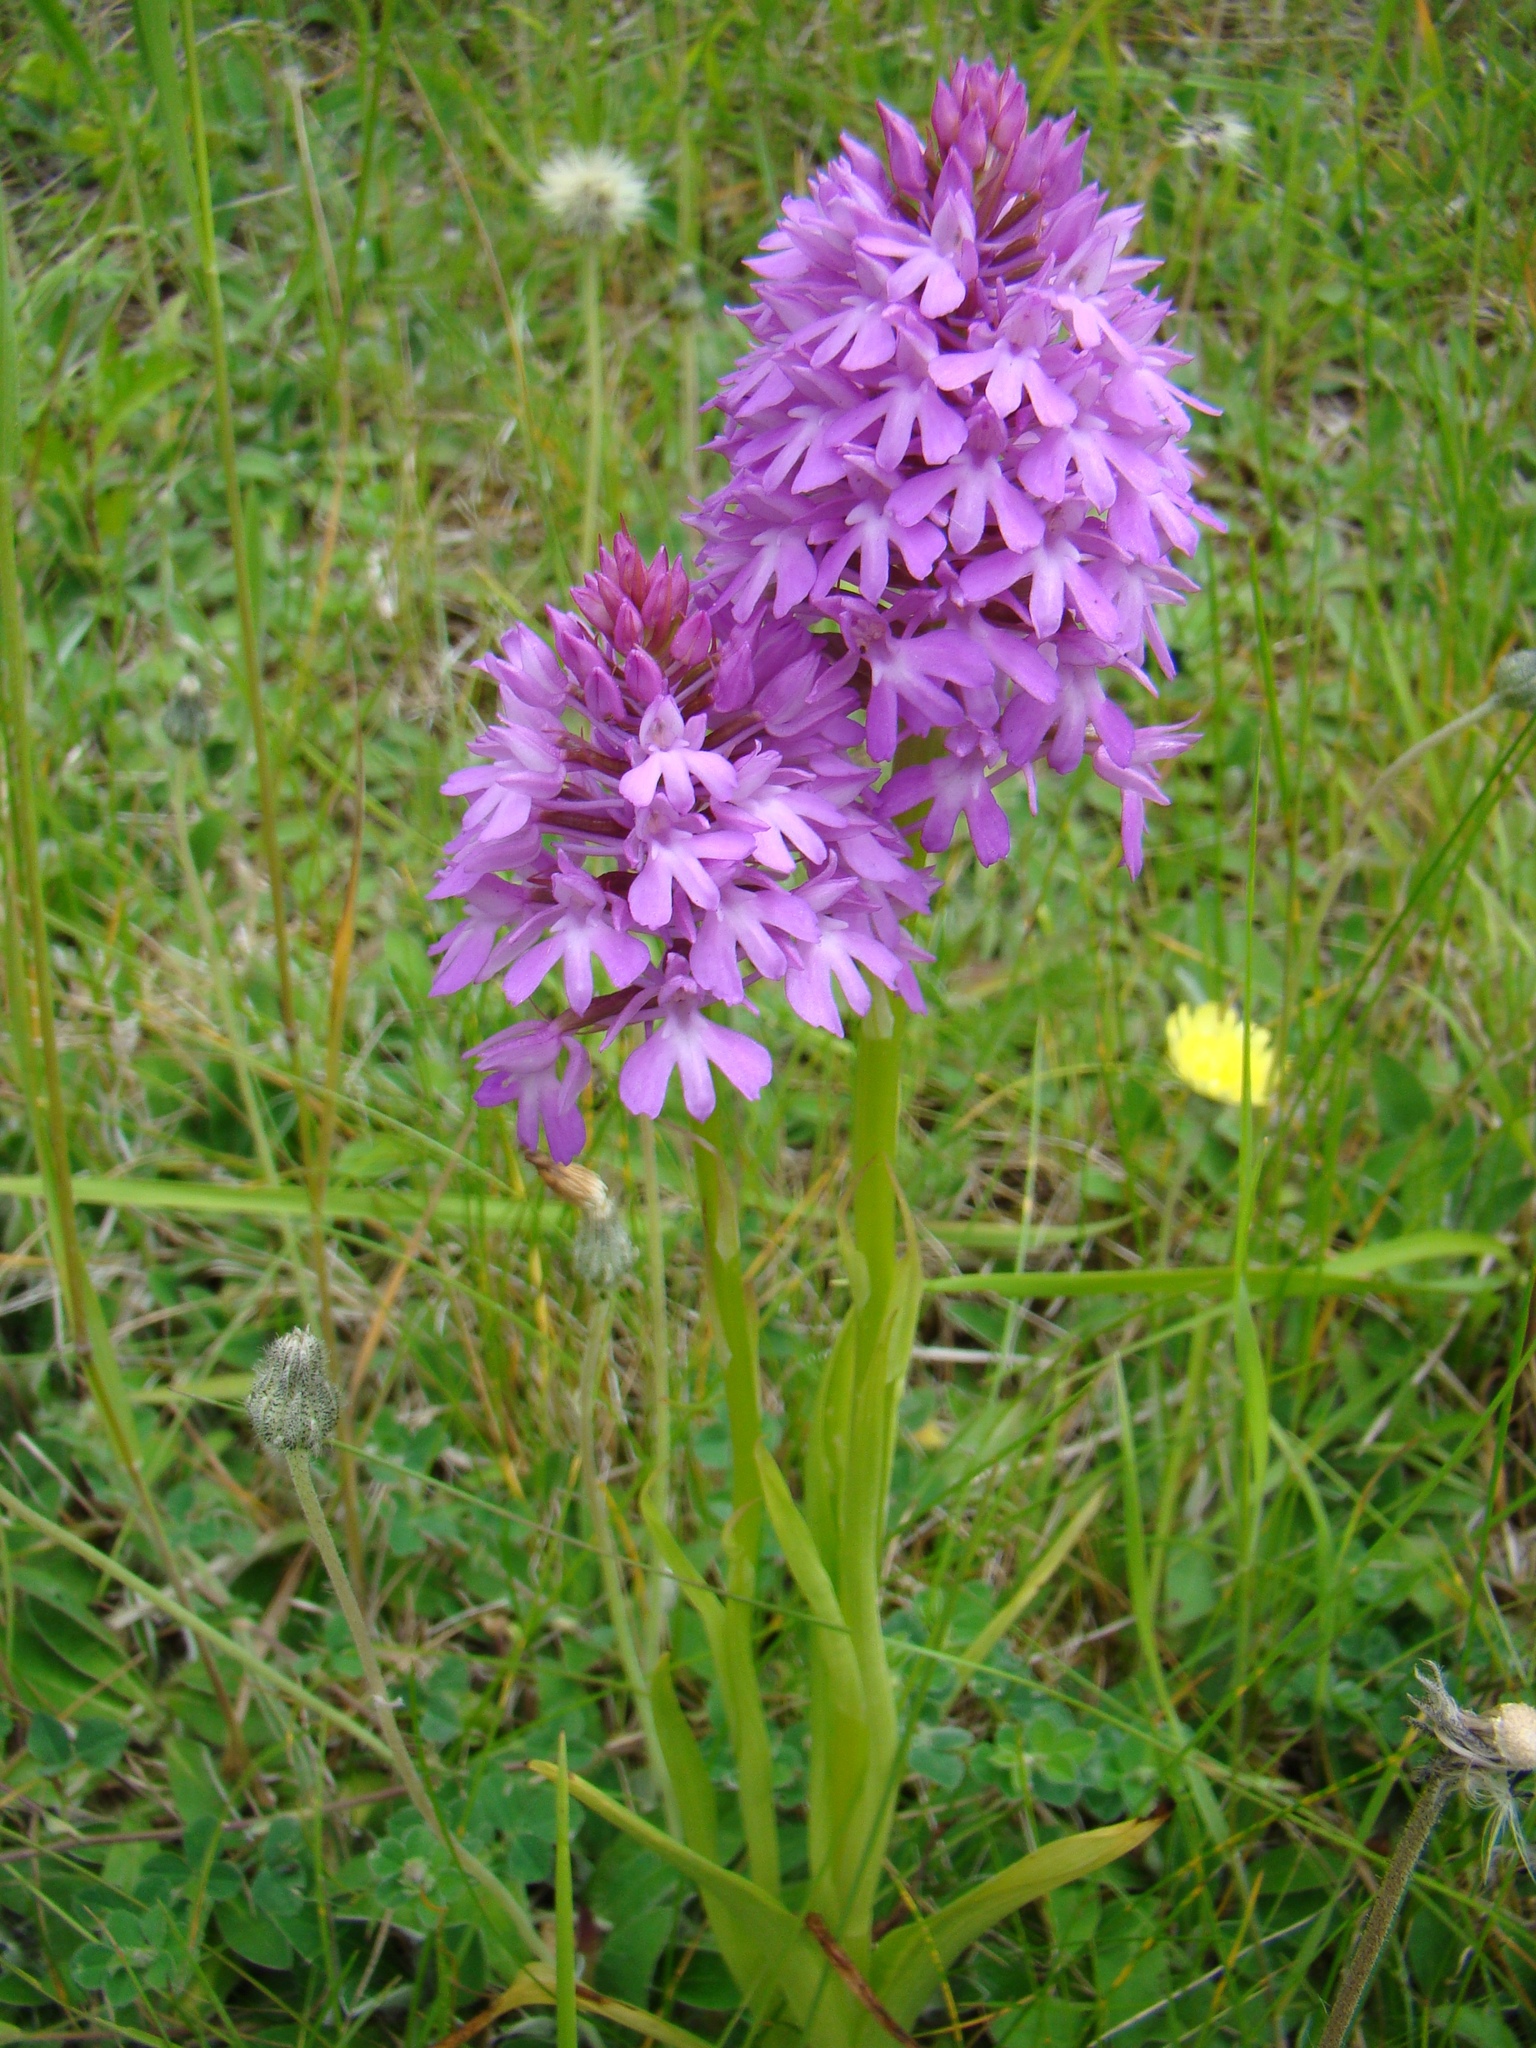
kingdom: Plantae
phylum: Tracheophyta
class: Liliopsida
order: Asparagales
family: Orchidaceae
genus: Anacamptis
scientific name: Anacamptis pyramidalis
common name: Pyramidal orchid
